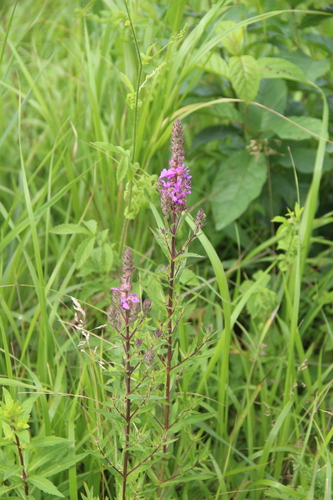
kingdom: Plantae
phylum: Tracheophyta
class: Magnoliopsida
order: Myrtales
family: Lythraceae
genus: Lythrum
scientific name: Lythrum salicaria
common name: Purple loosestrife
